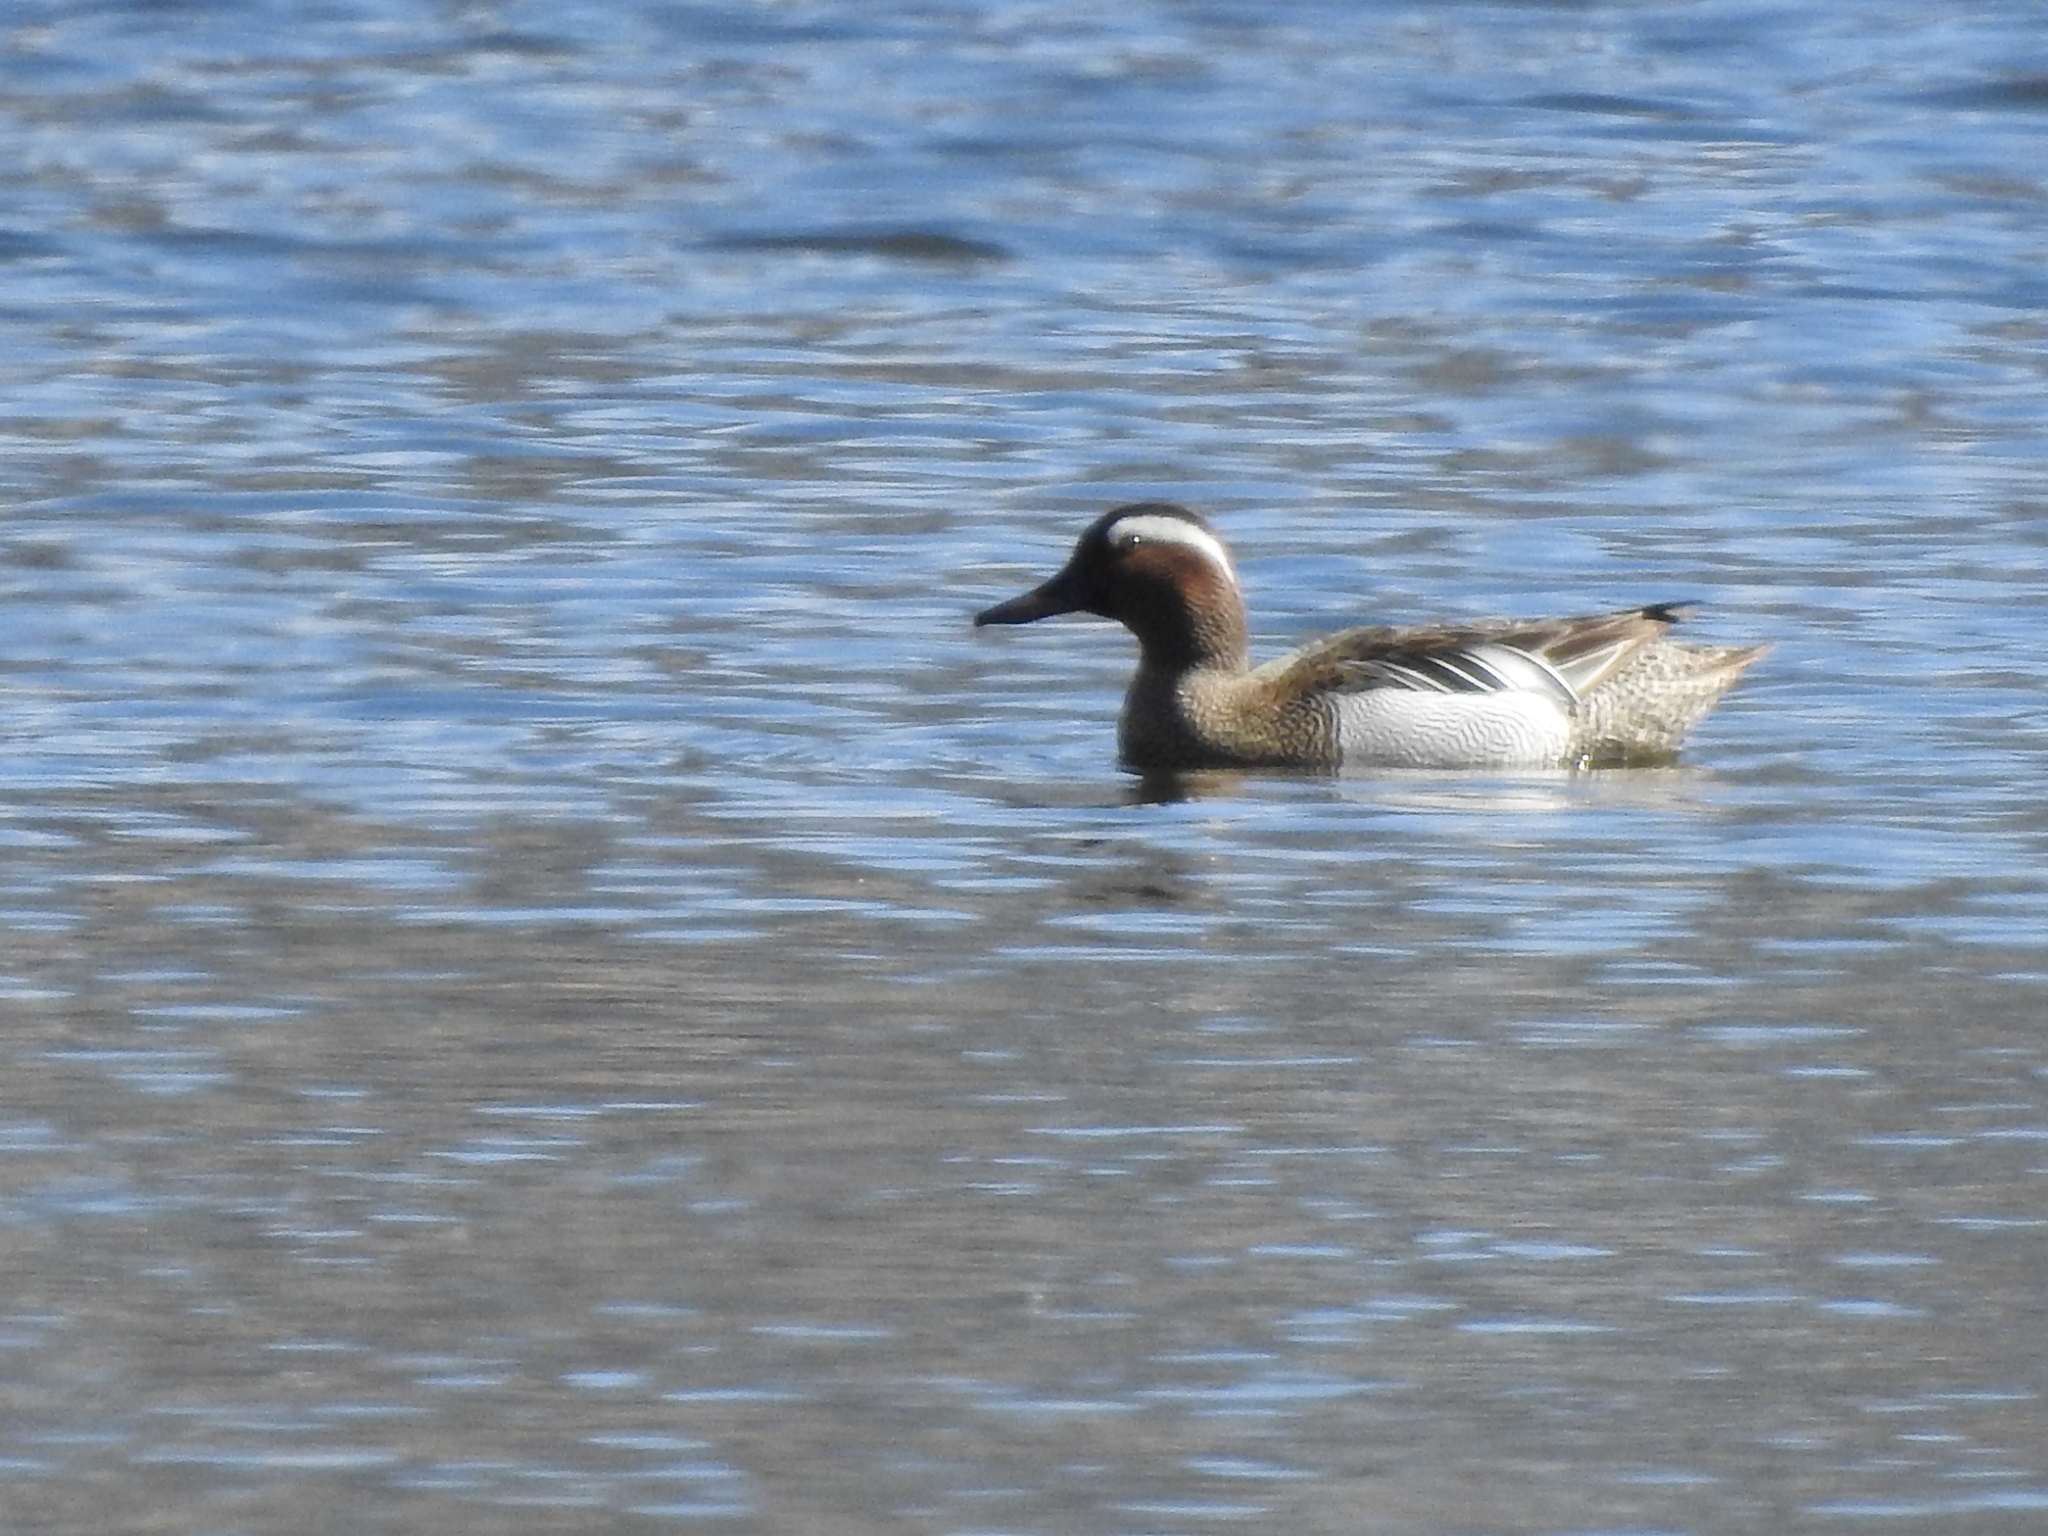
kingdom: Animalia
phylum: Chordata
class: Aves
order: Anseriformes
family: Anatidae
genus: Spatula
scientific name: Spatula querquedula
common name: Garganey
